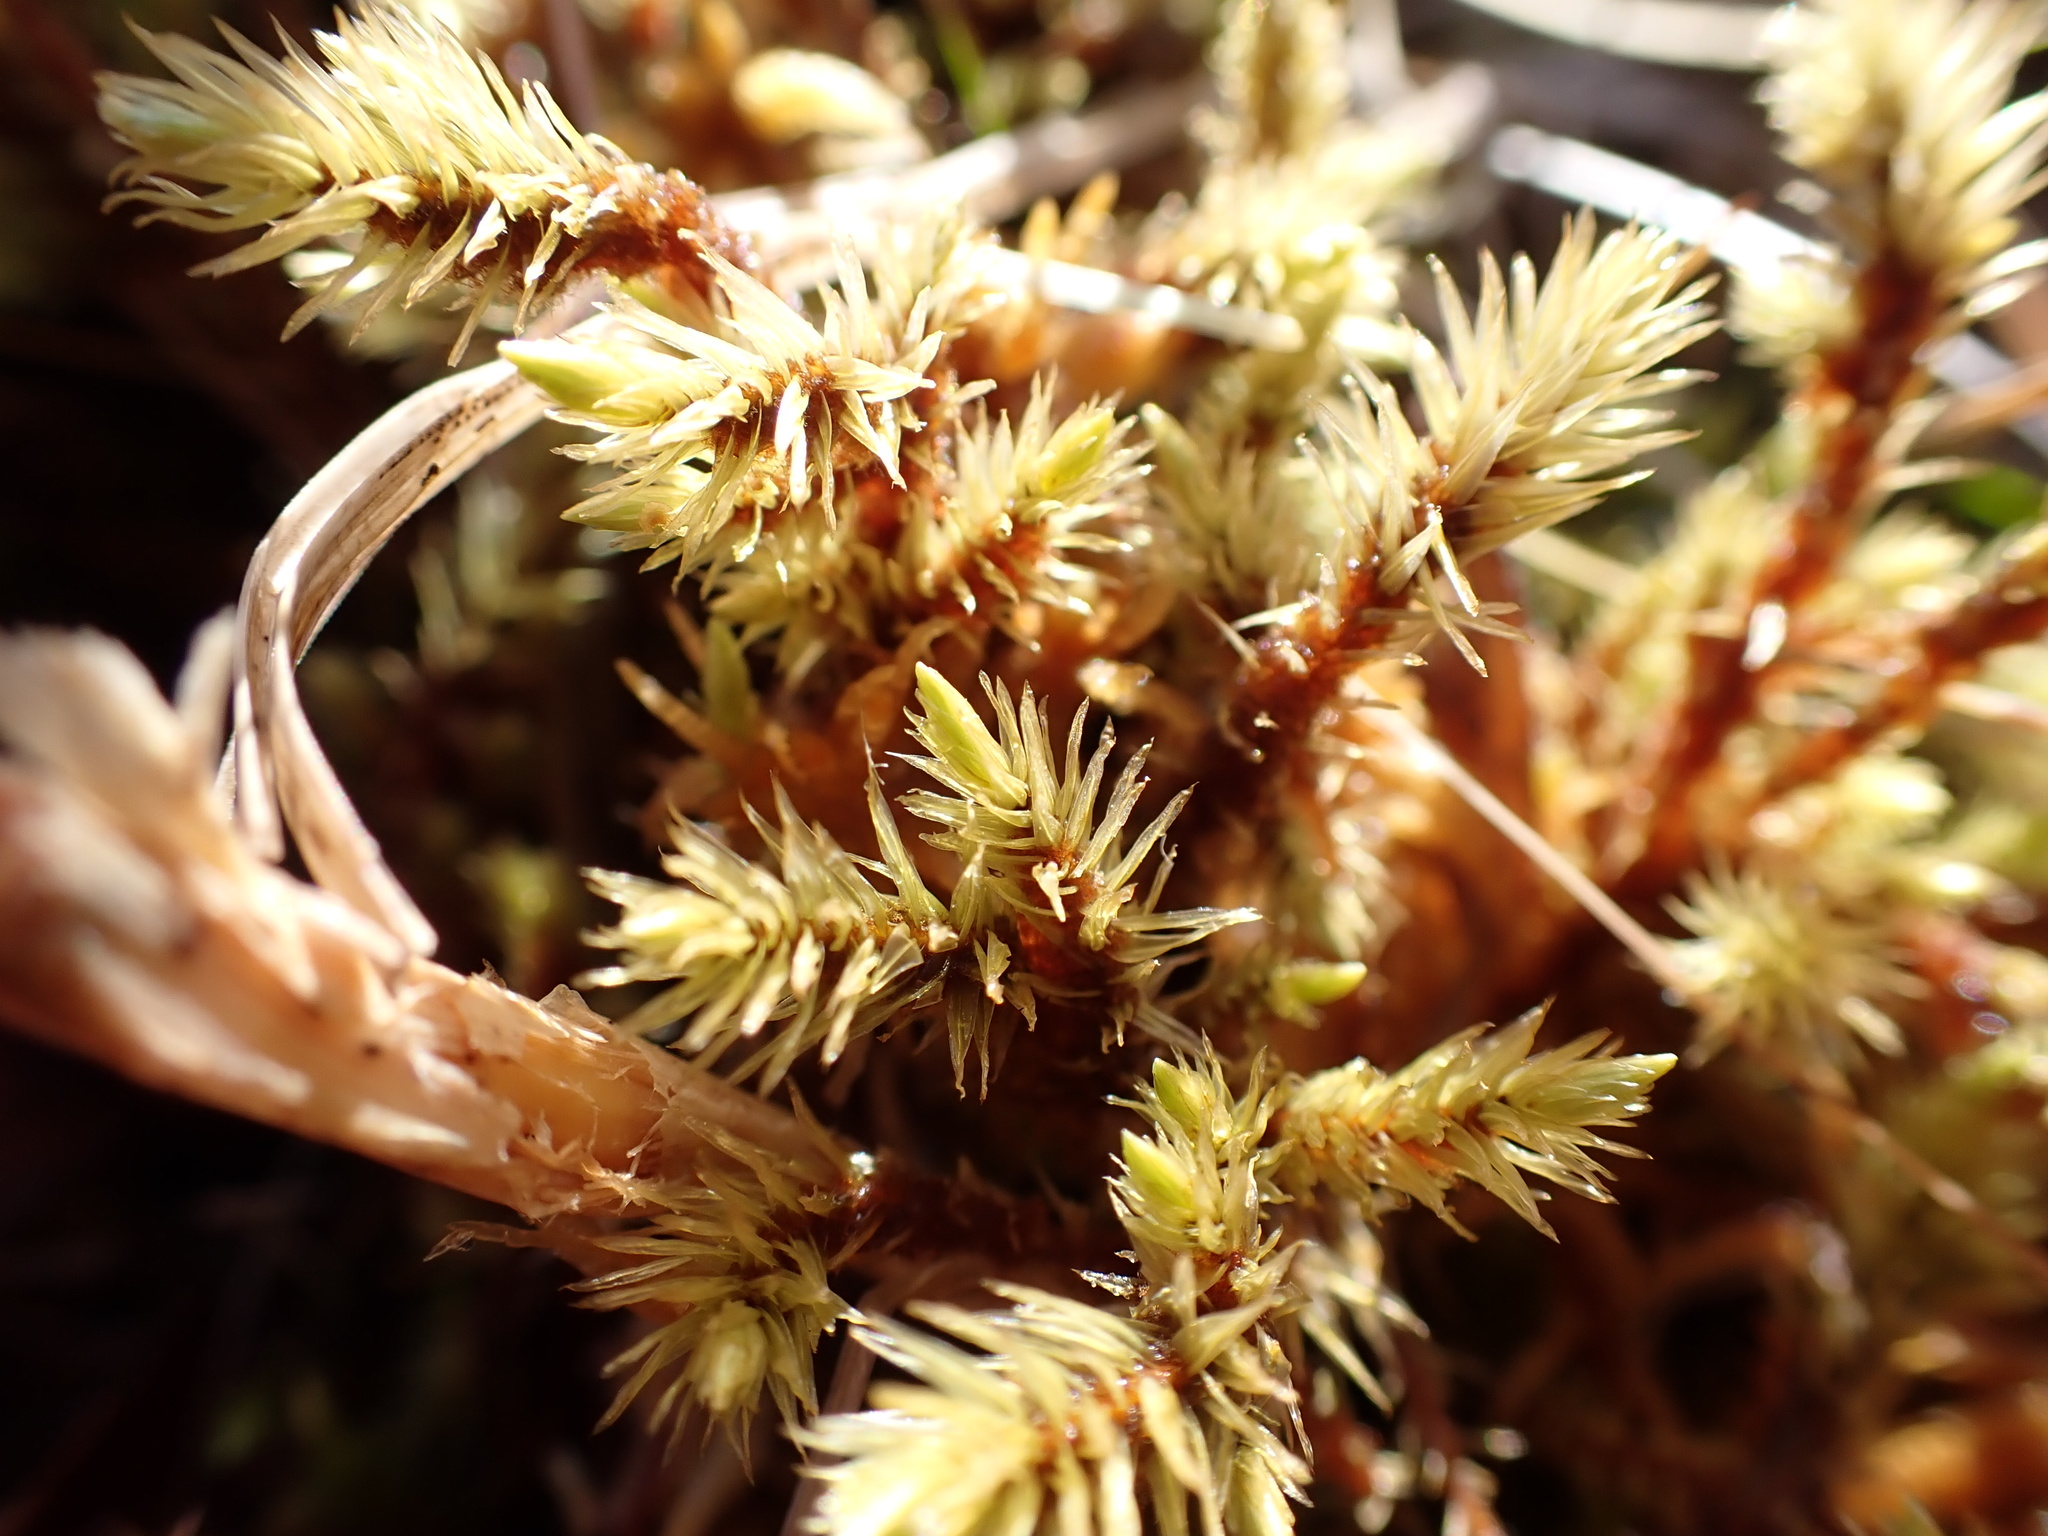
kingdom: Plantae
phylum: Bryophyta
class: Bryopsida
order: Aulacomniales
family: Aulacomniaceae
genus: Aulacomnium
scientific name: Aulacomnium palustre
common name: Bog groove-moss
